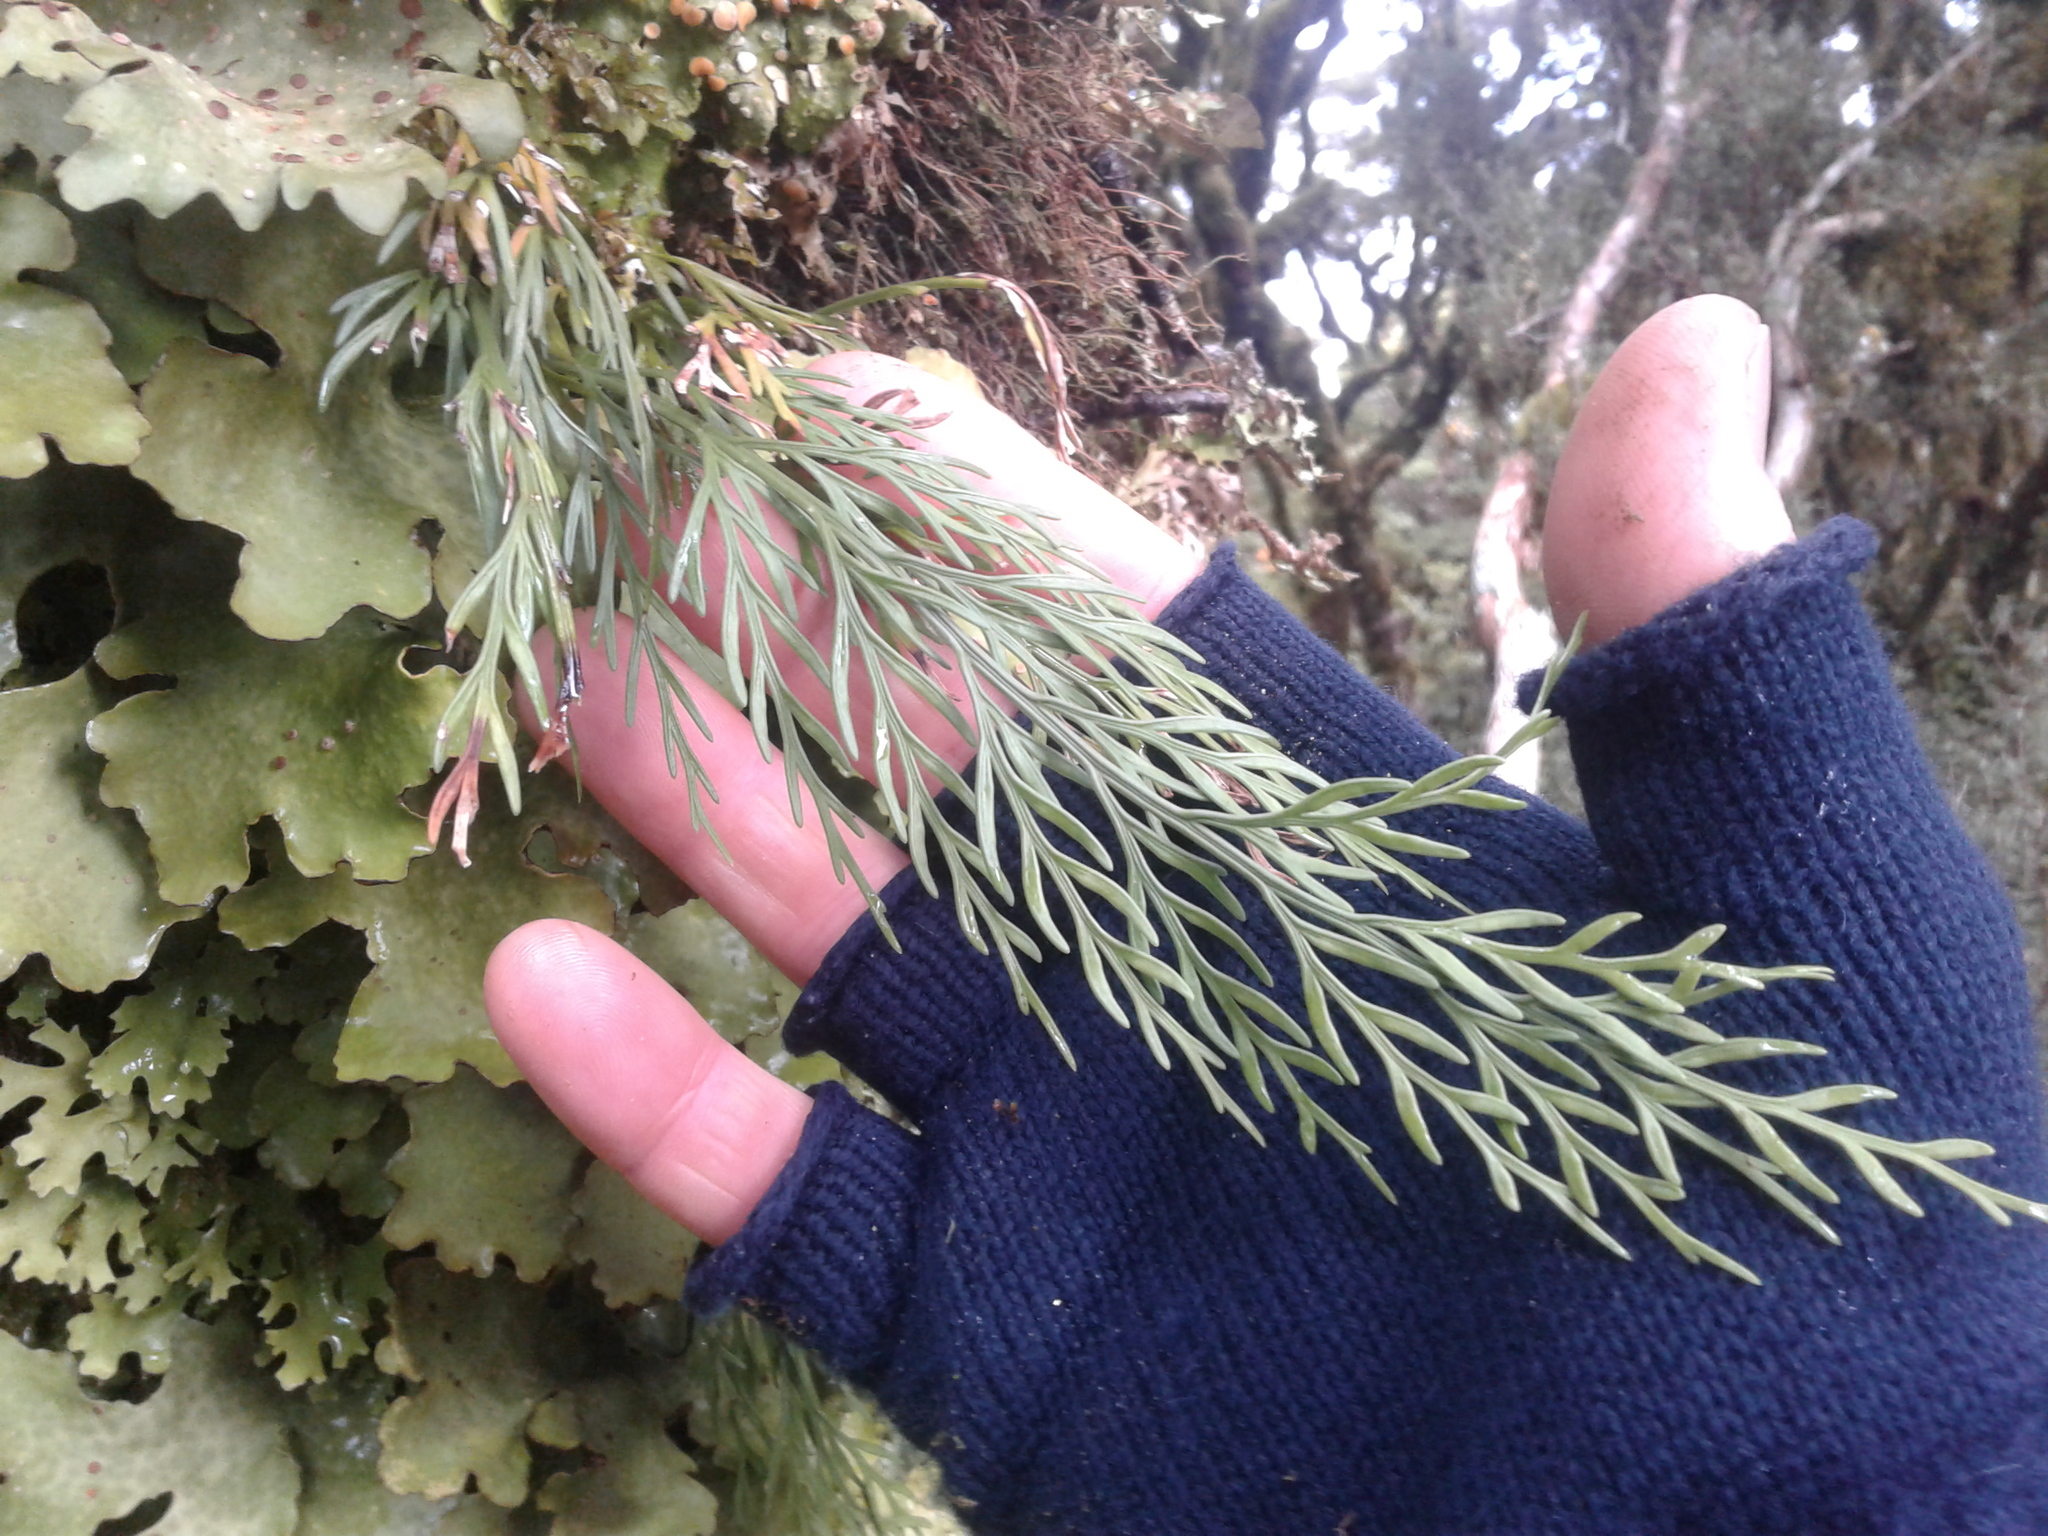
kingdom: Plantae
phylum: Tracheophyta
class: Polypodiopsida
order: Polypodiales
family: Aspleniaceae
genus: Asplenium
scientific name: Asplenium flaccidum
